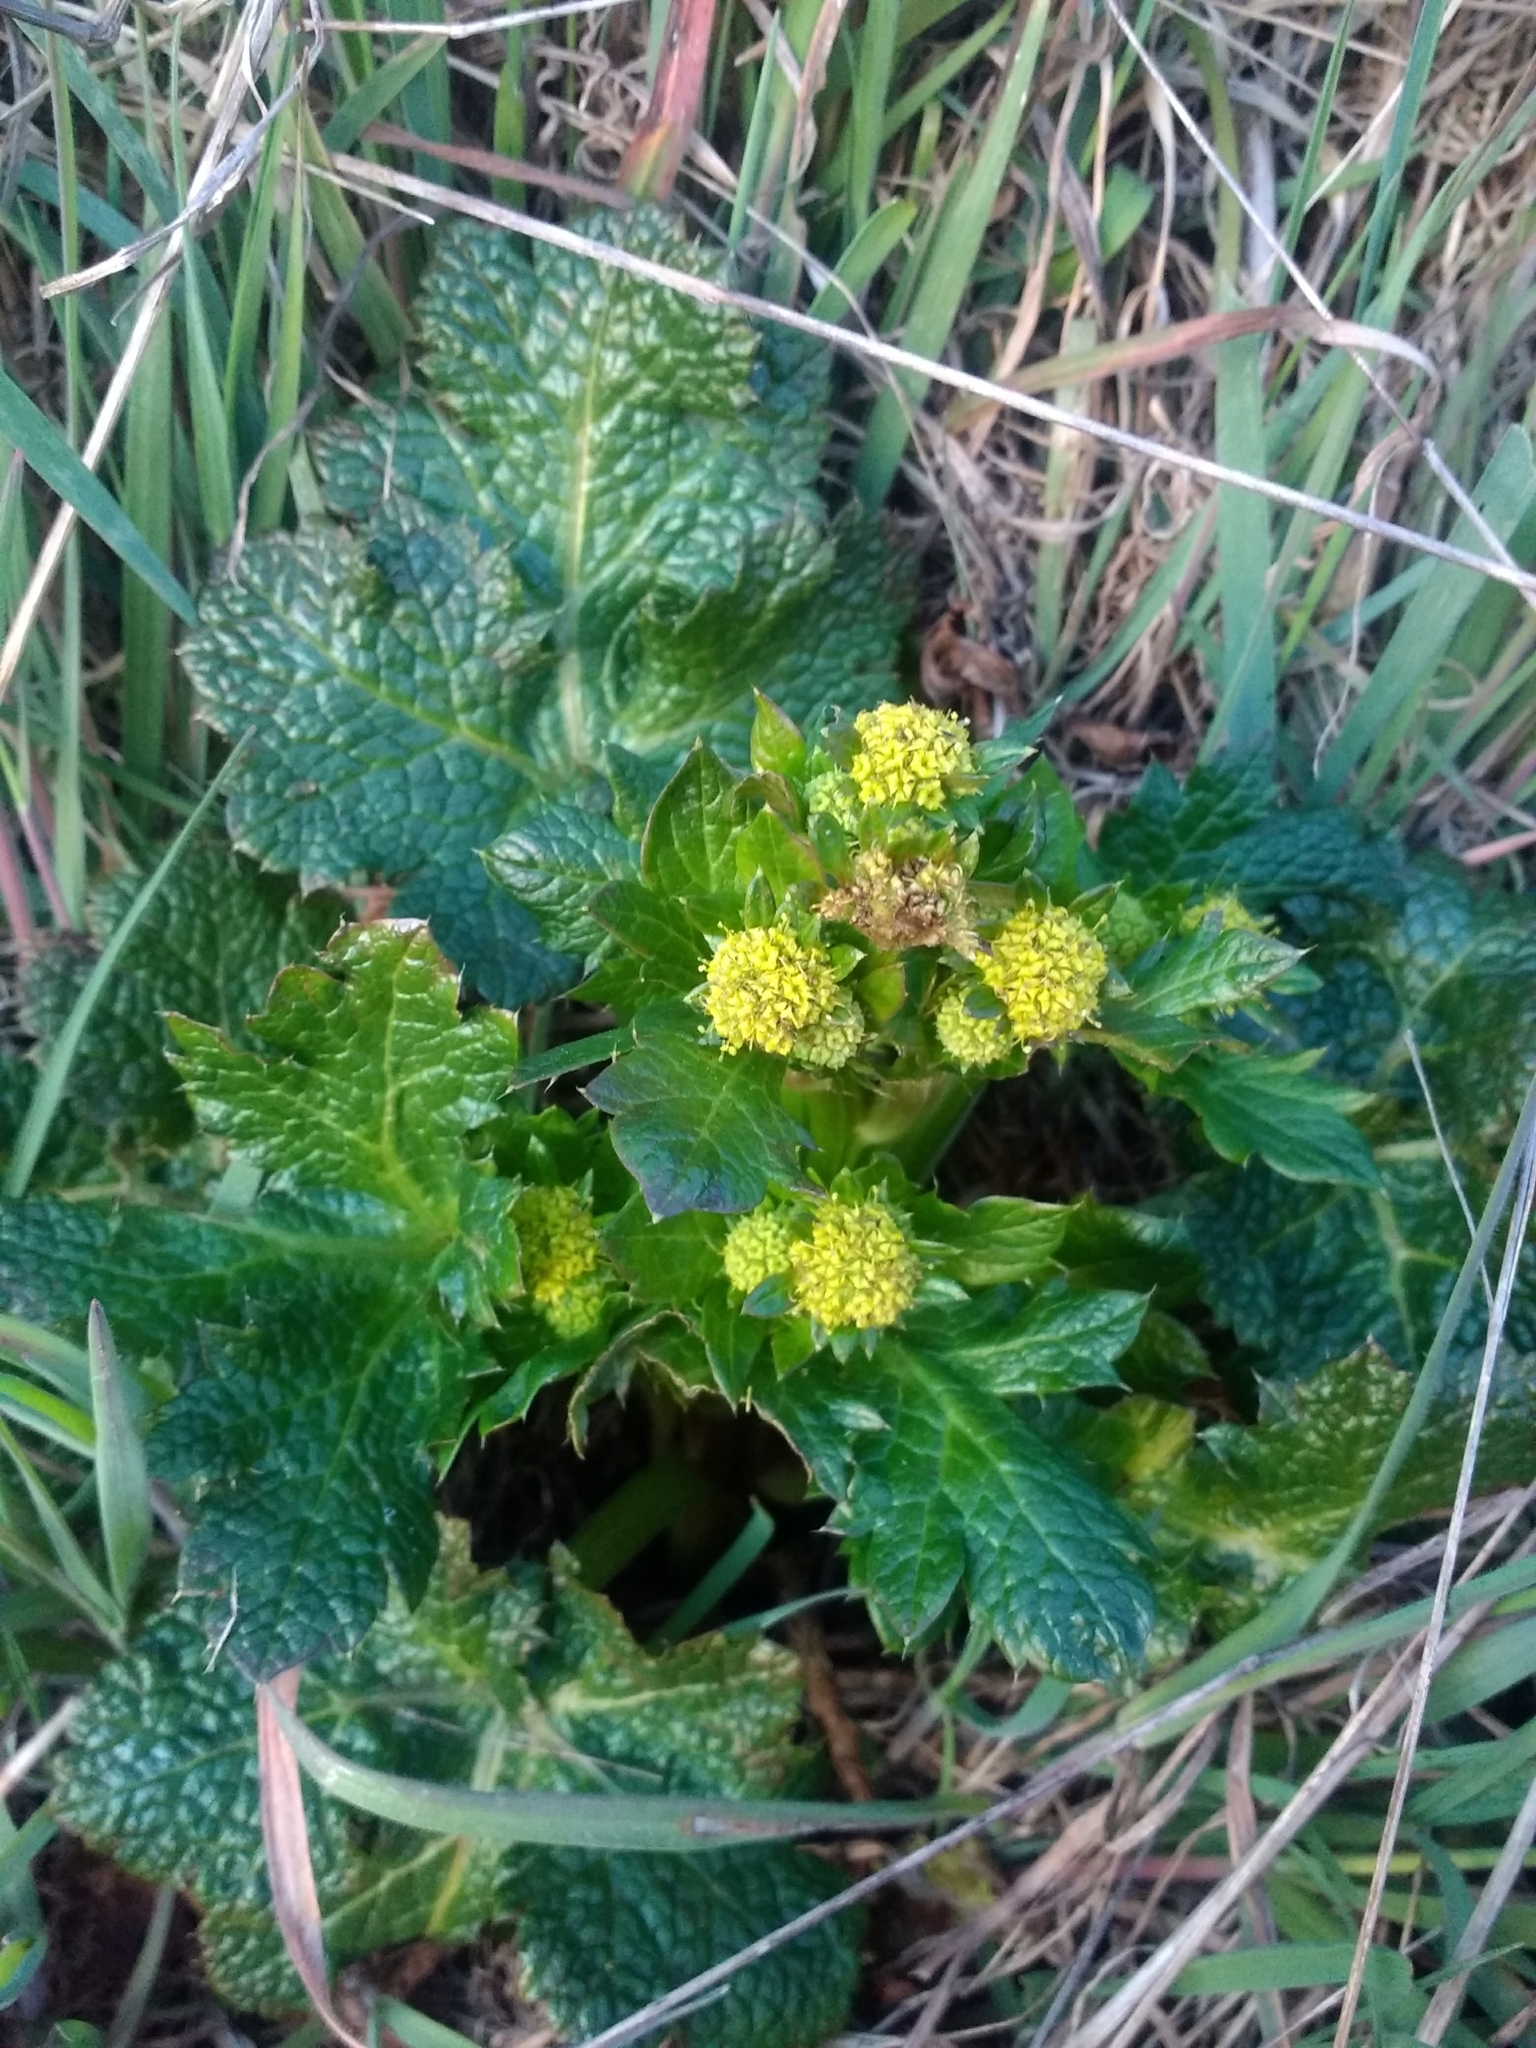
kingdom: Plantae
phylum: Tracheophyta
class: Magnoliopsida
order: Apiales
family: Apiaceae
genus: Sanicula
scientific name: Sanicula crassicaulis
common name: Western snakeroot
